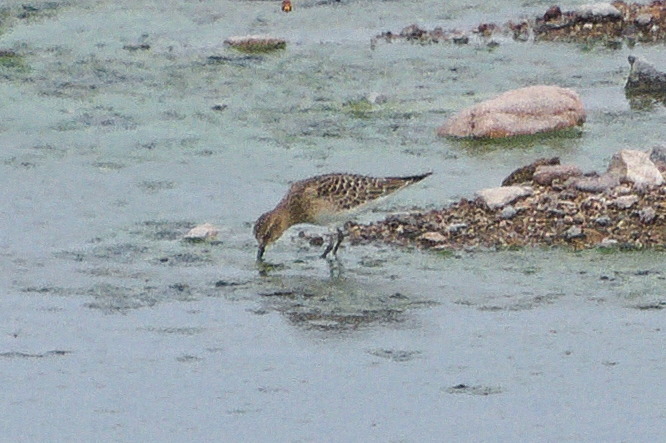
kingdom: Animalia
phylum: Chordata
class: Aves
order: Charadriiformes
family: Scolopacidae
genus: Calidris
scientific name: Calidris bairdii
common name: Baird's sandpiper
